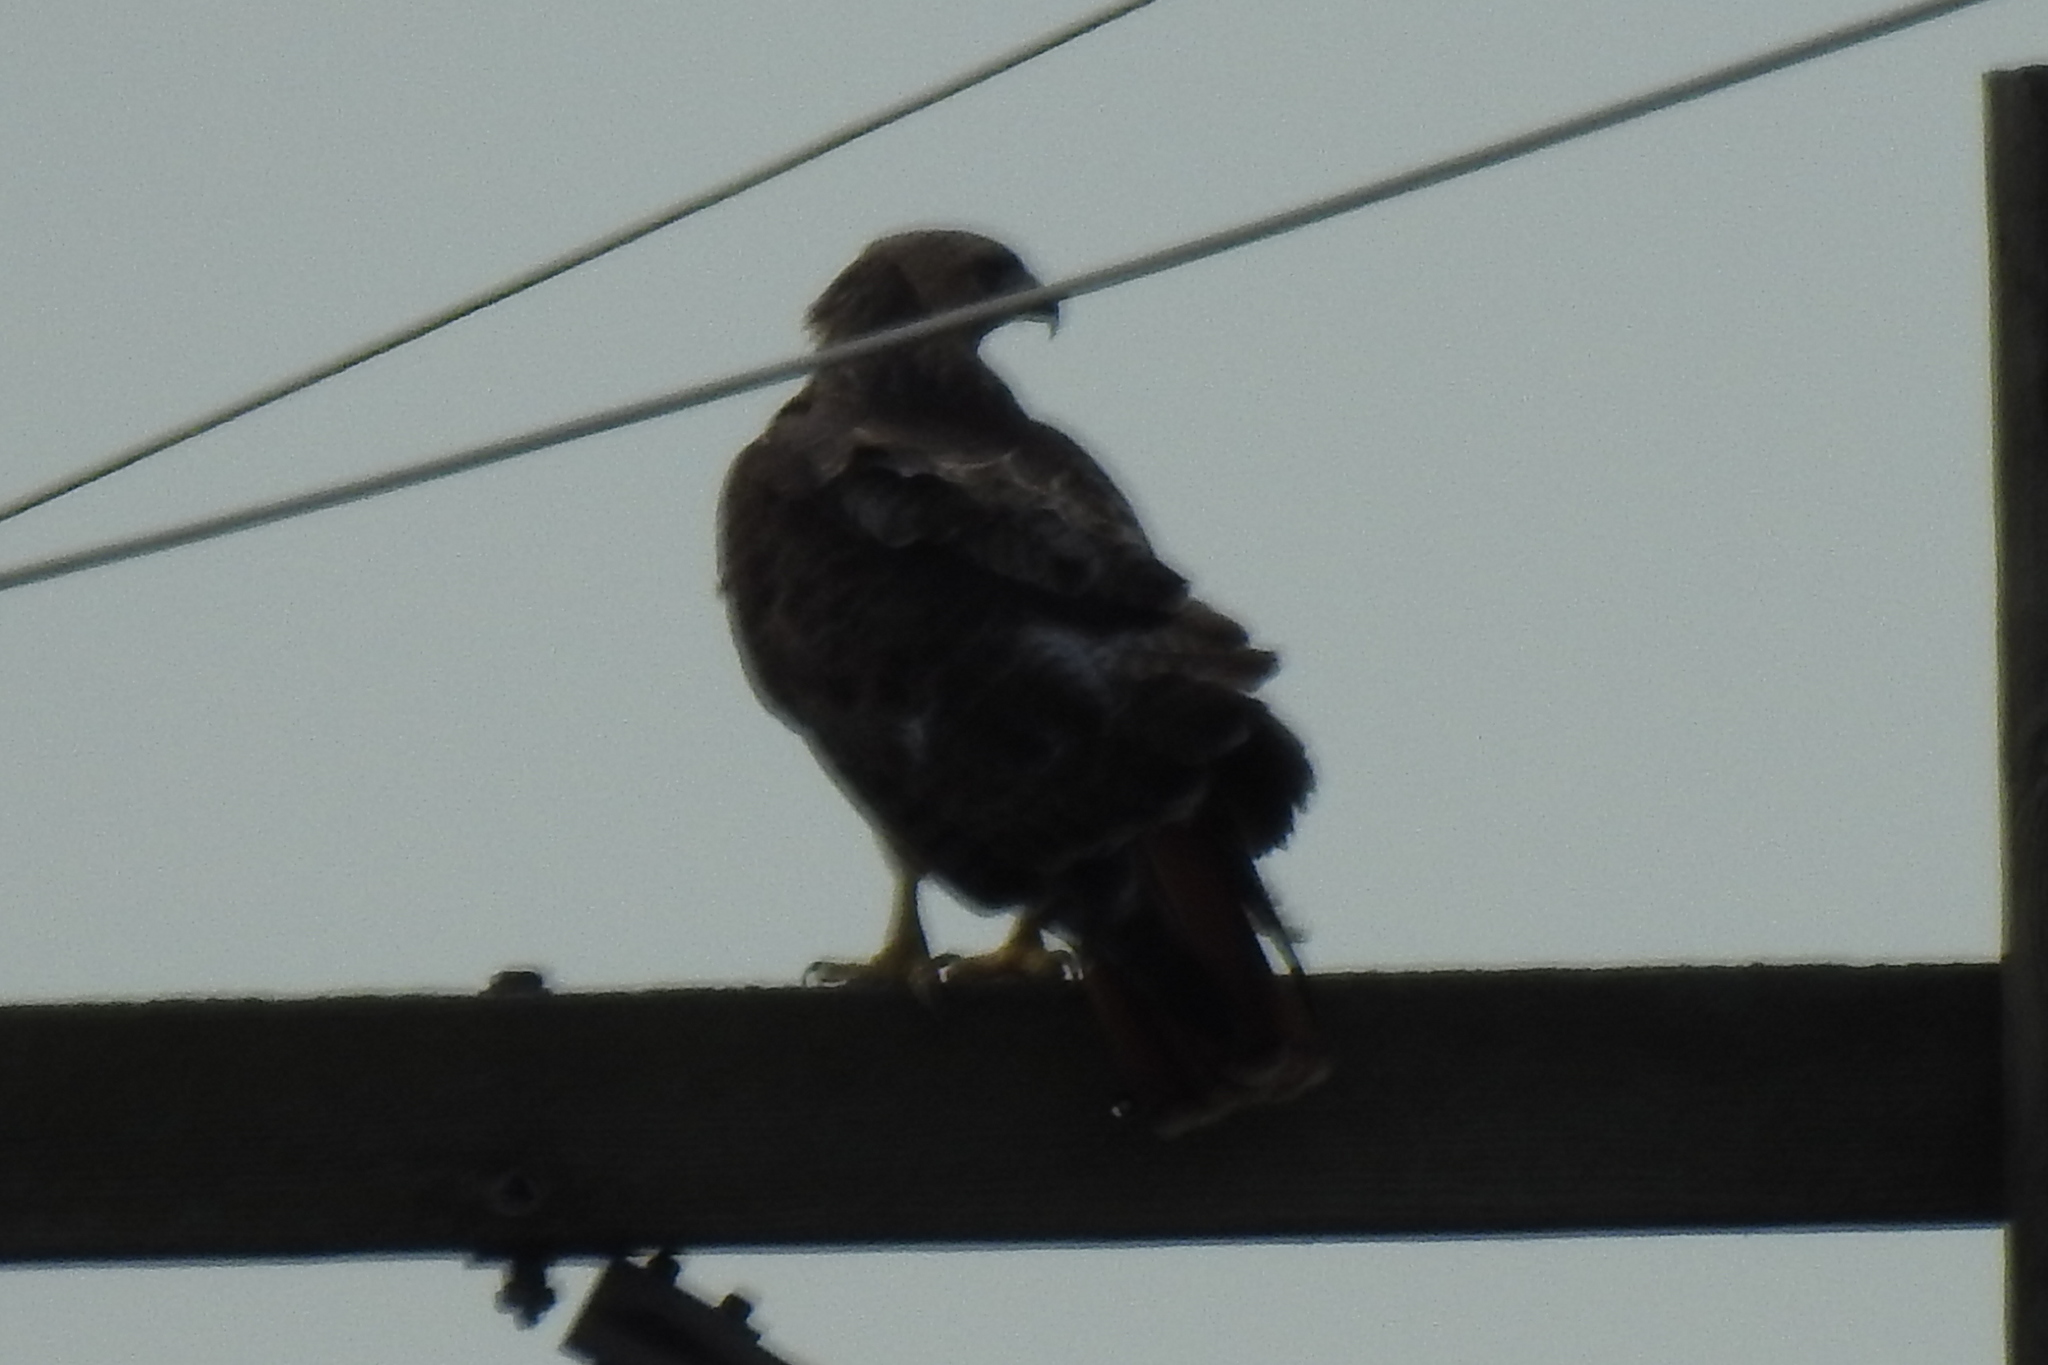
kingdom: Animalia
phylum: Chordata
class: Aves
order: Accipitriformes
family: Accipitridae
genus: Buteo
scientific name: Buteo jamaicensis
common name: Red-tailed hawk
